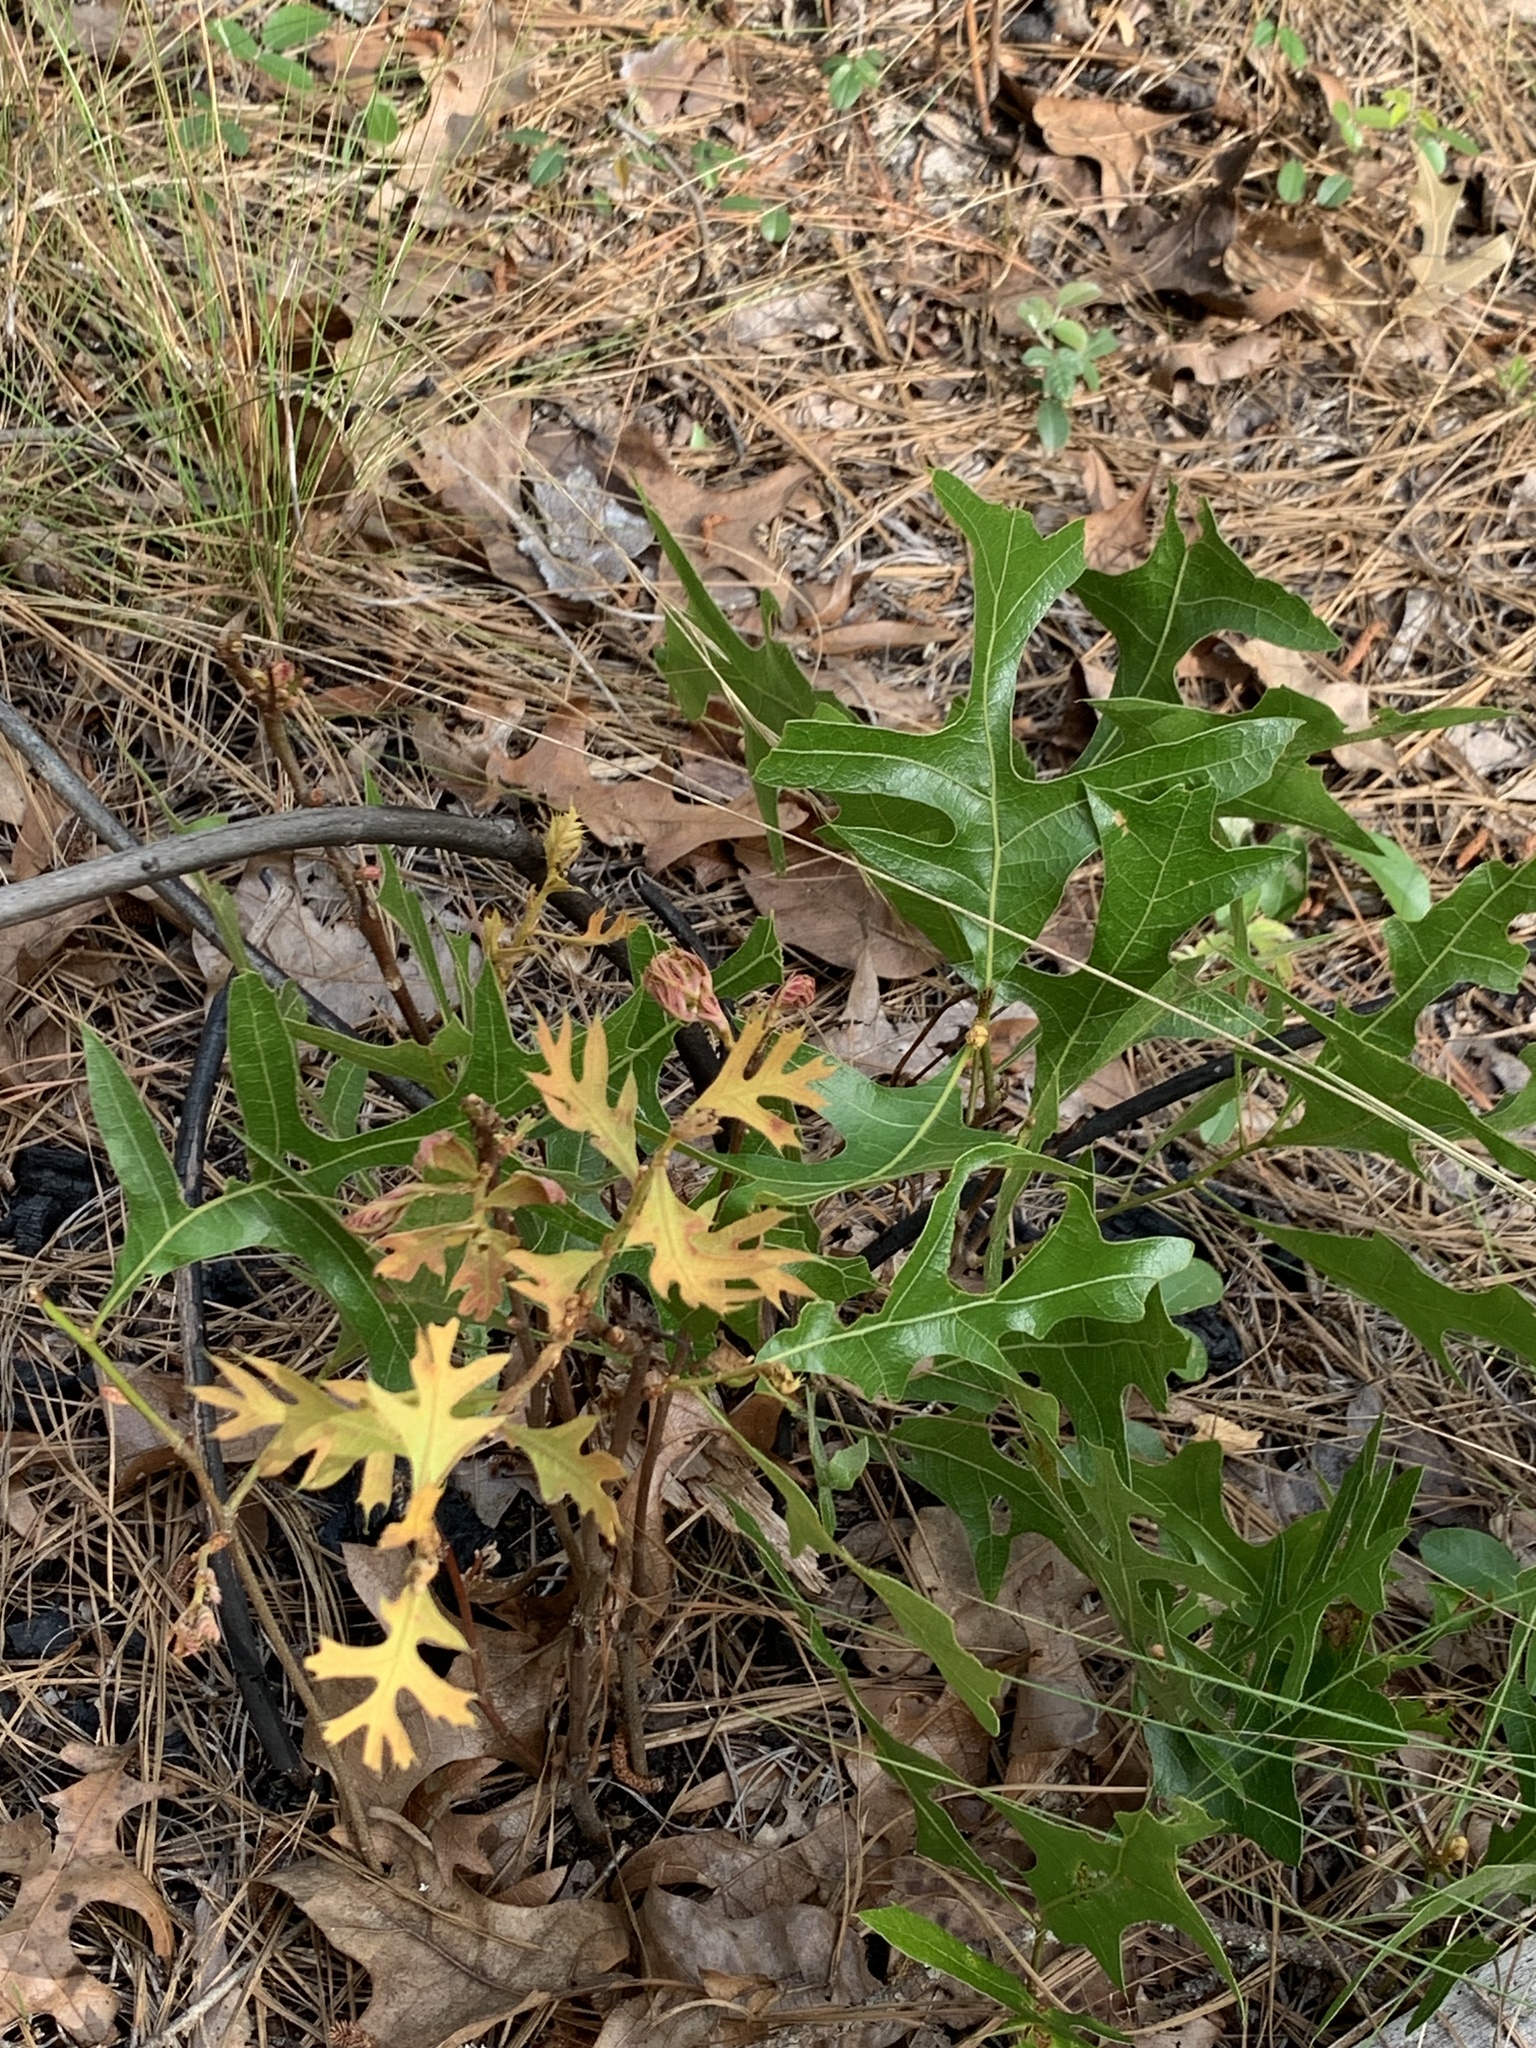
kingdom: Plantae
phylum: Tracheophyta
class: Magnoliopsida
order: Fagales
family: Fagaceae
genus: Quercus
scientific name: Quercus laevis
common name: Turkey oak
